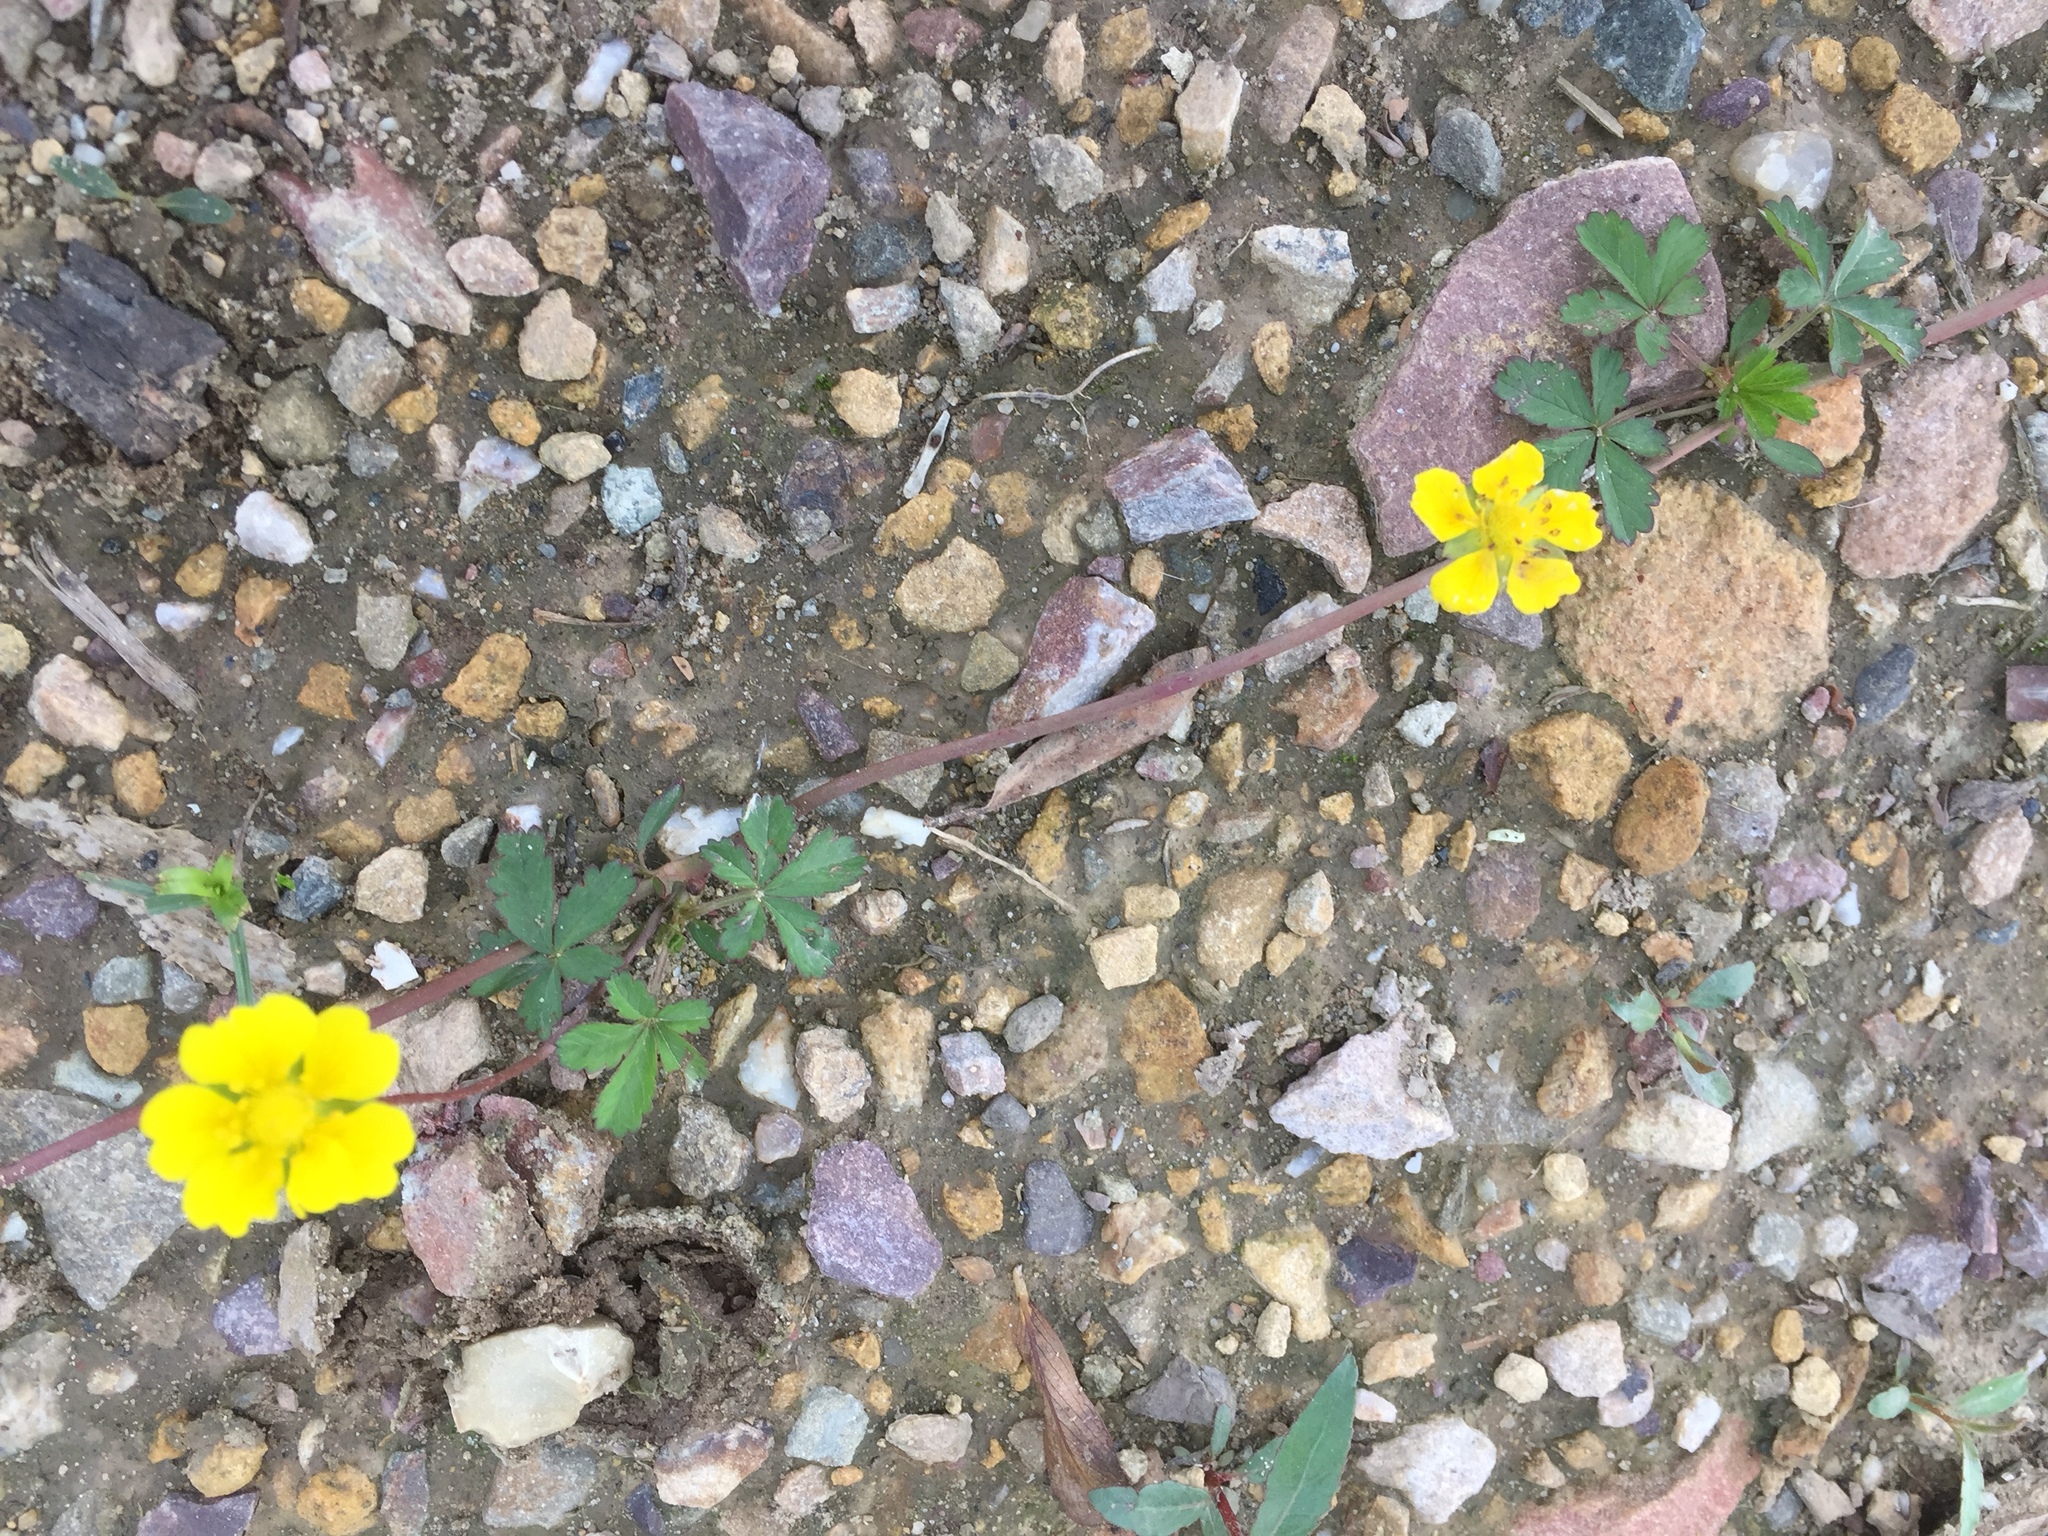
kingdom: Plantae
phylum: Tracheophyta
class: Magnoliopsida
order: Rosales
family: Rosaceae
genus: Potentilla
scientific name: Potentilla reptans
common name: Creeping cinquefoil
